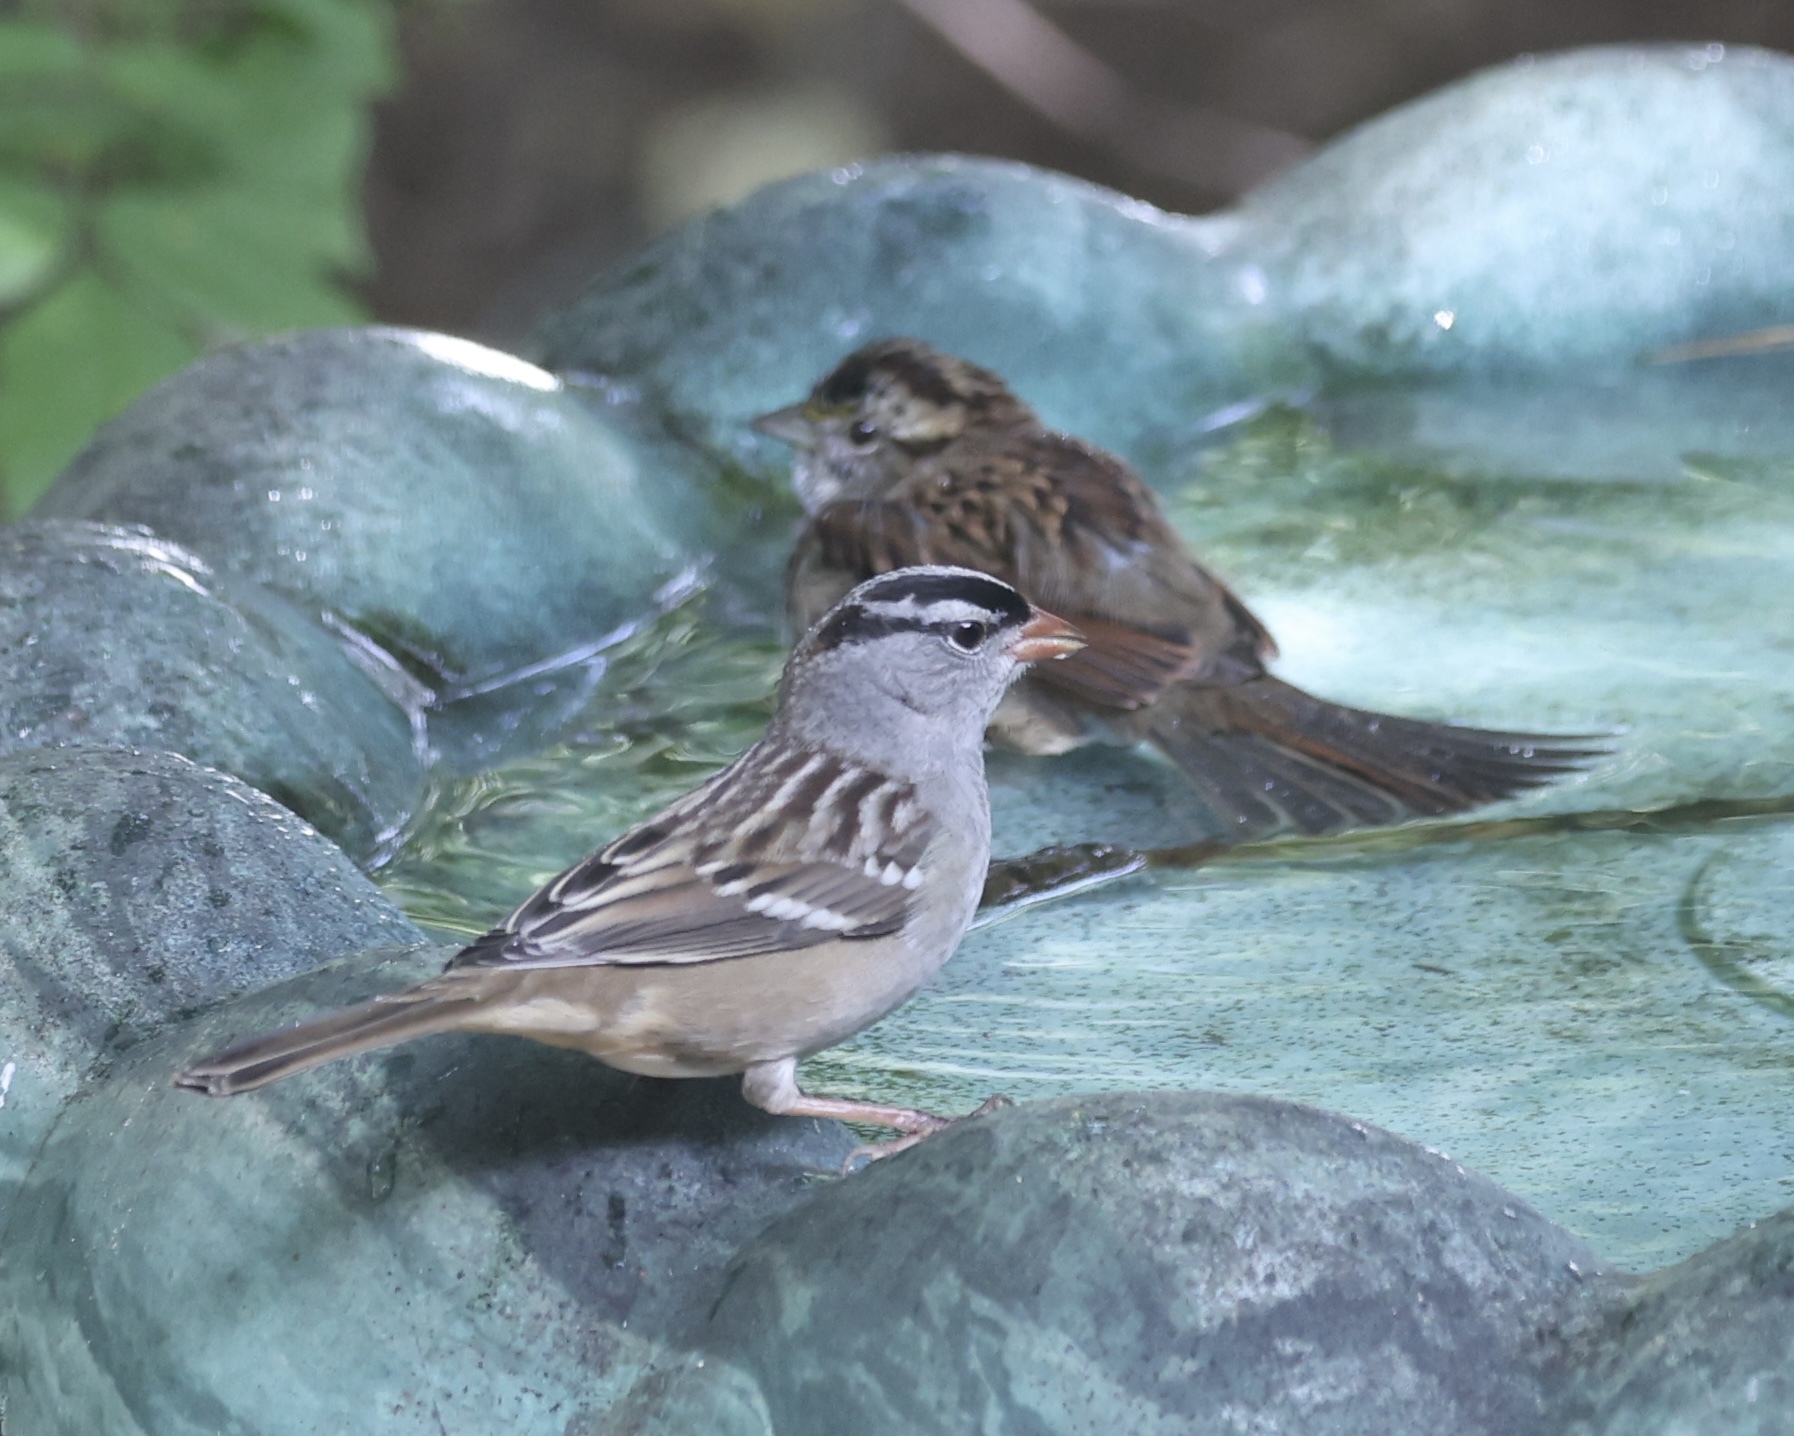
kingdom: Animalia
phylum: Chordata
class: Aves
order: Passeriformes
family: Passerellidae
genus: Zonotrichia
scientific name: Zonotrichia leucophrys
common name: White-crowned sparrow
